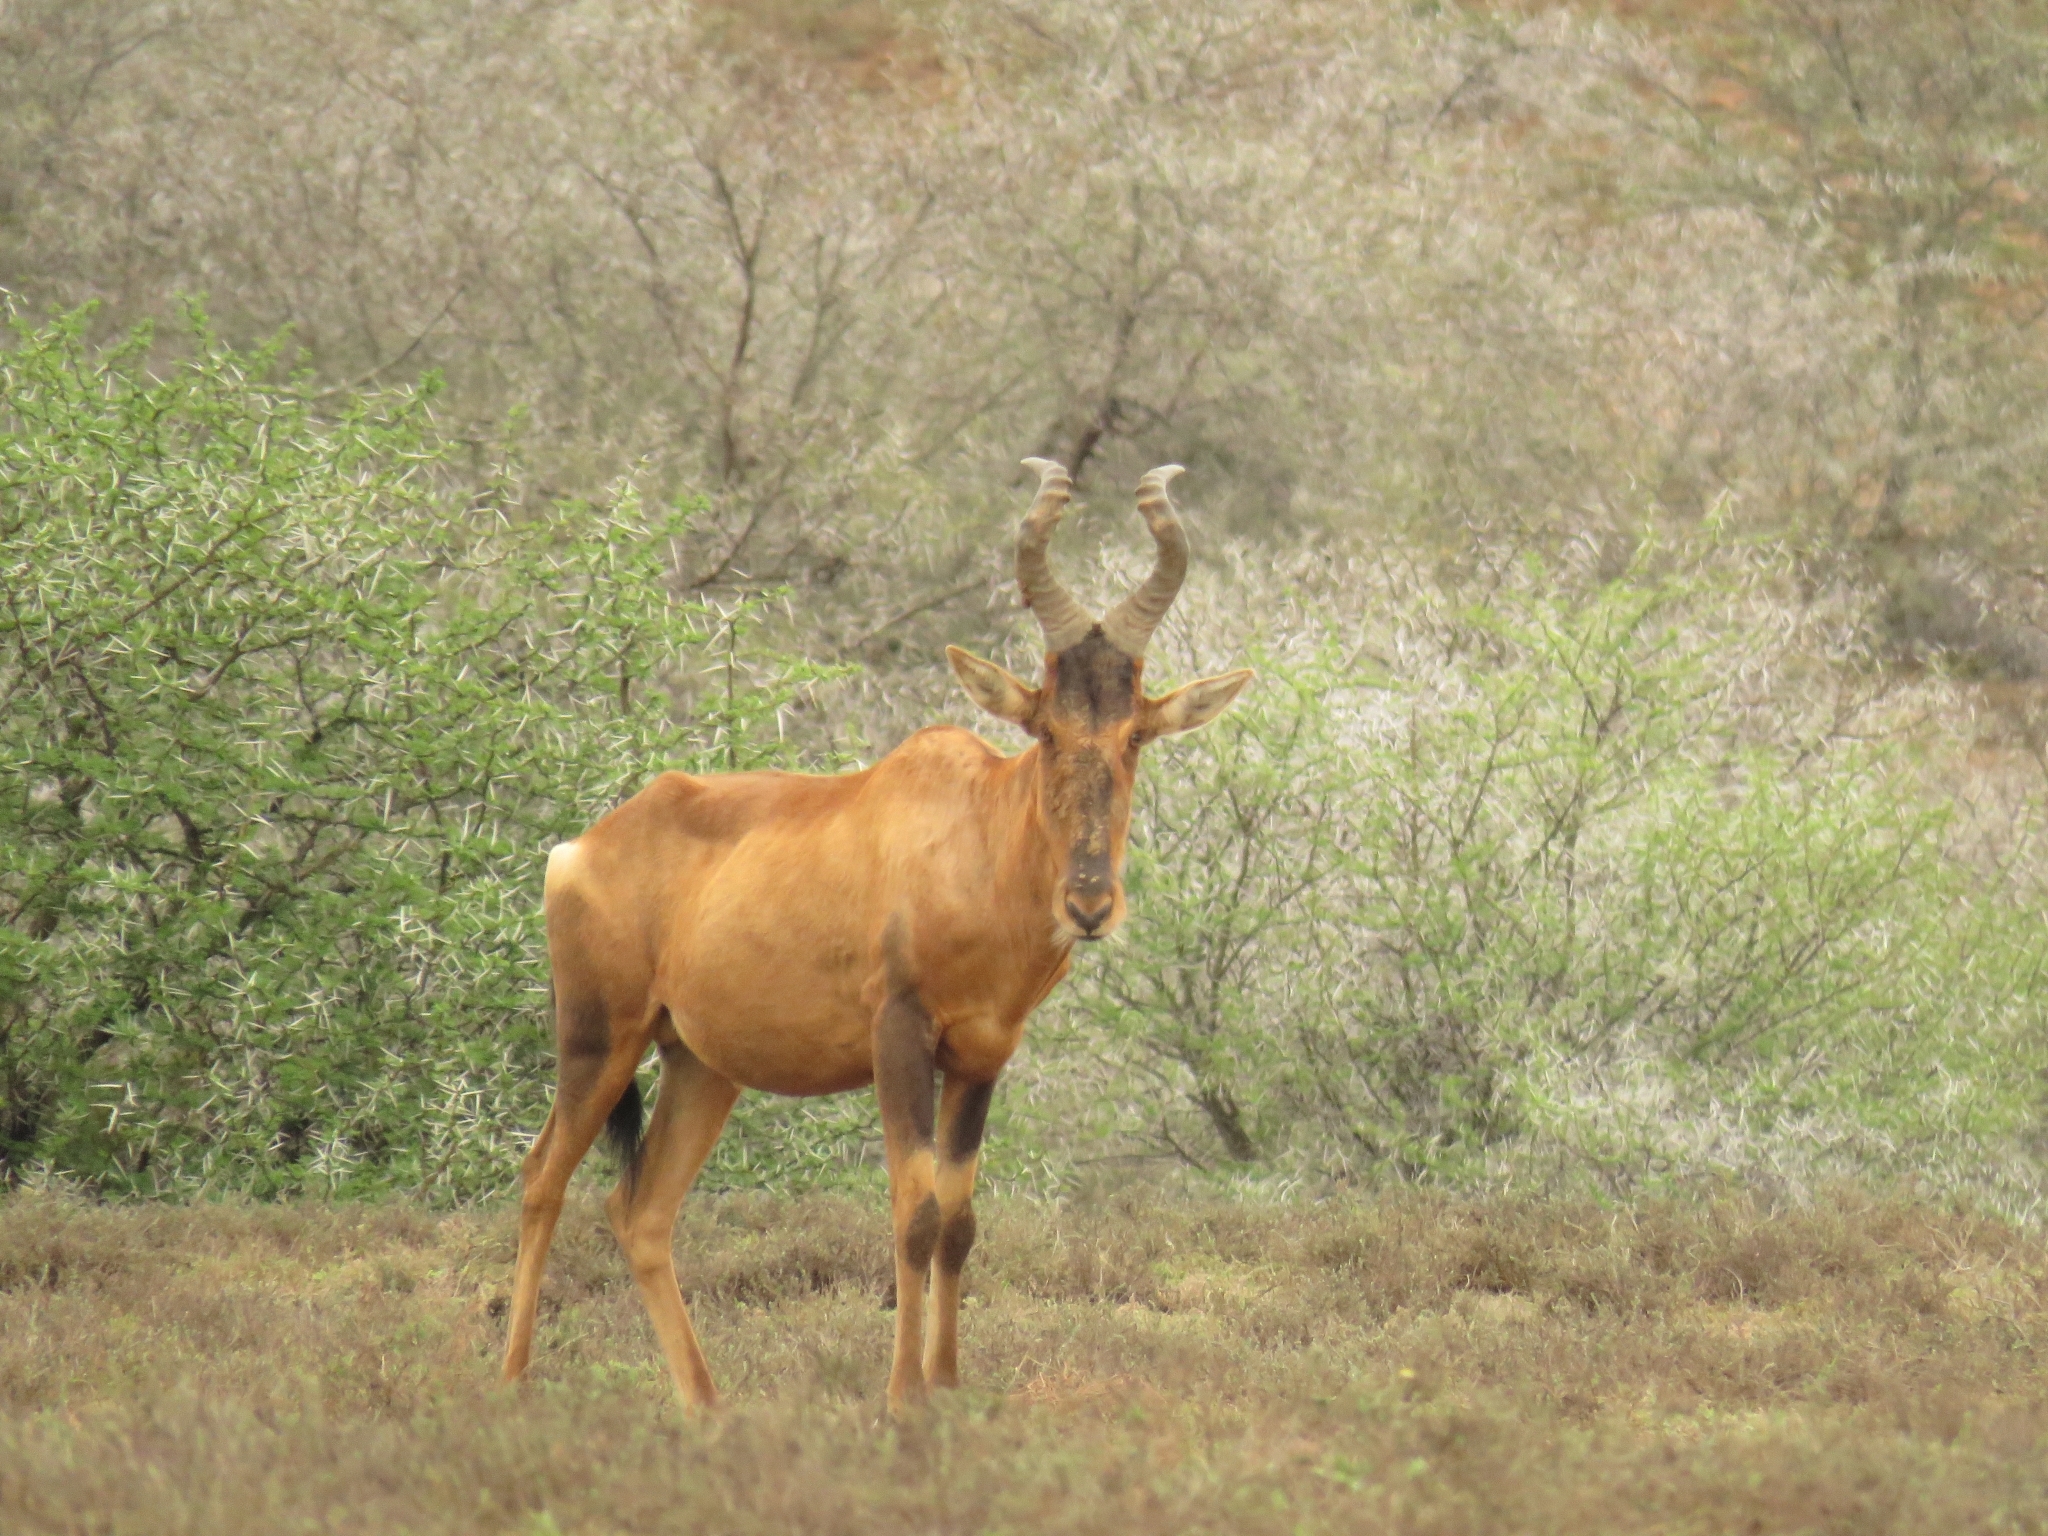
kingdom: Animalia
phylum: Chordata
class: Mammalia
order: Artiodactyla
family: Bovidae
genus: Alcelaphus
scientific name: Alcelaphus caama
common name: Red hartebeest
